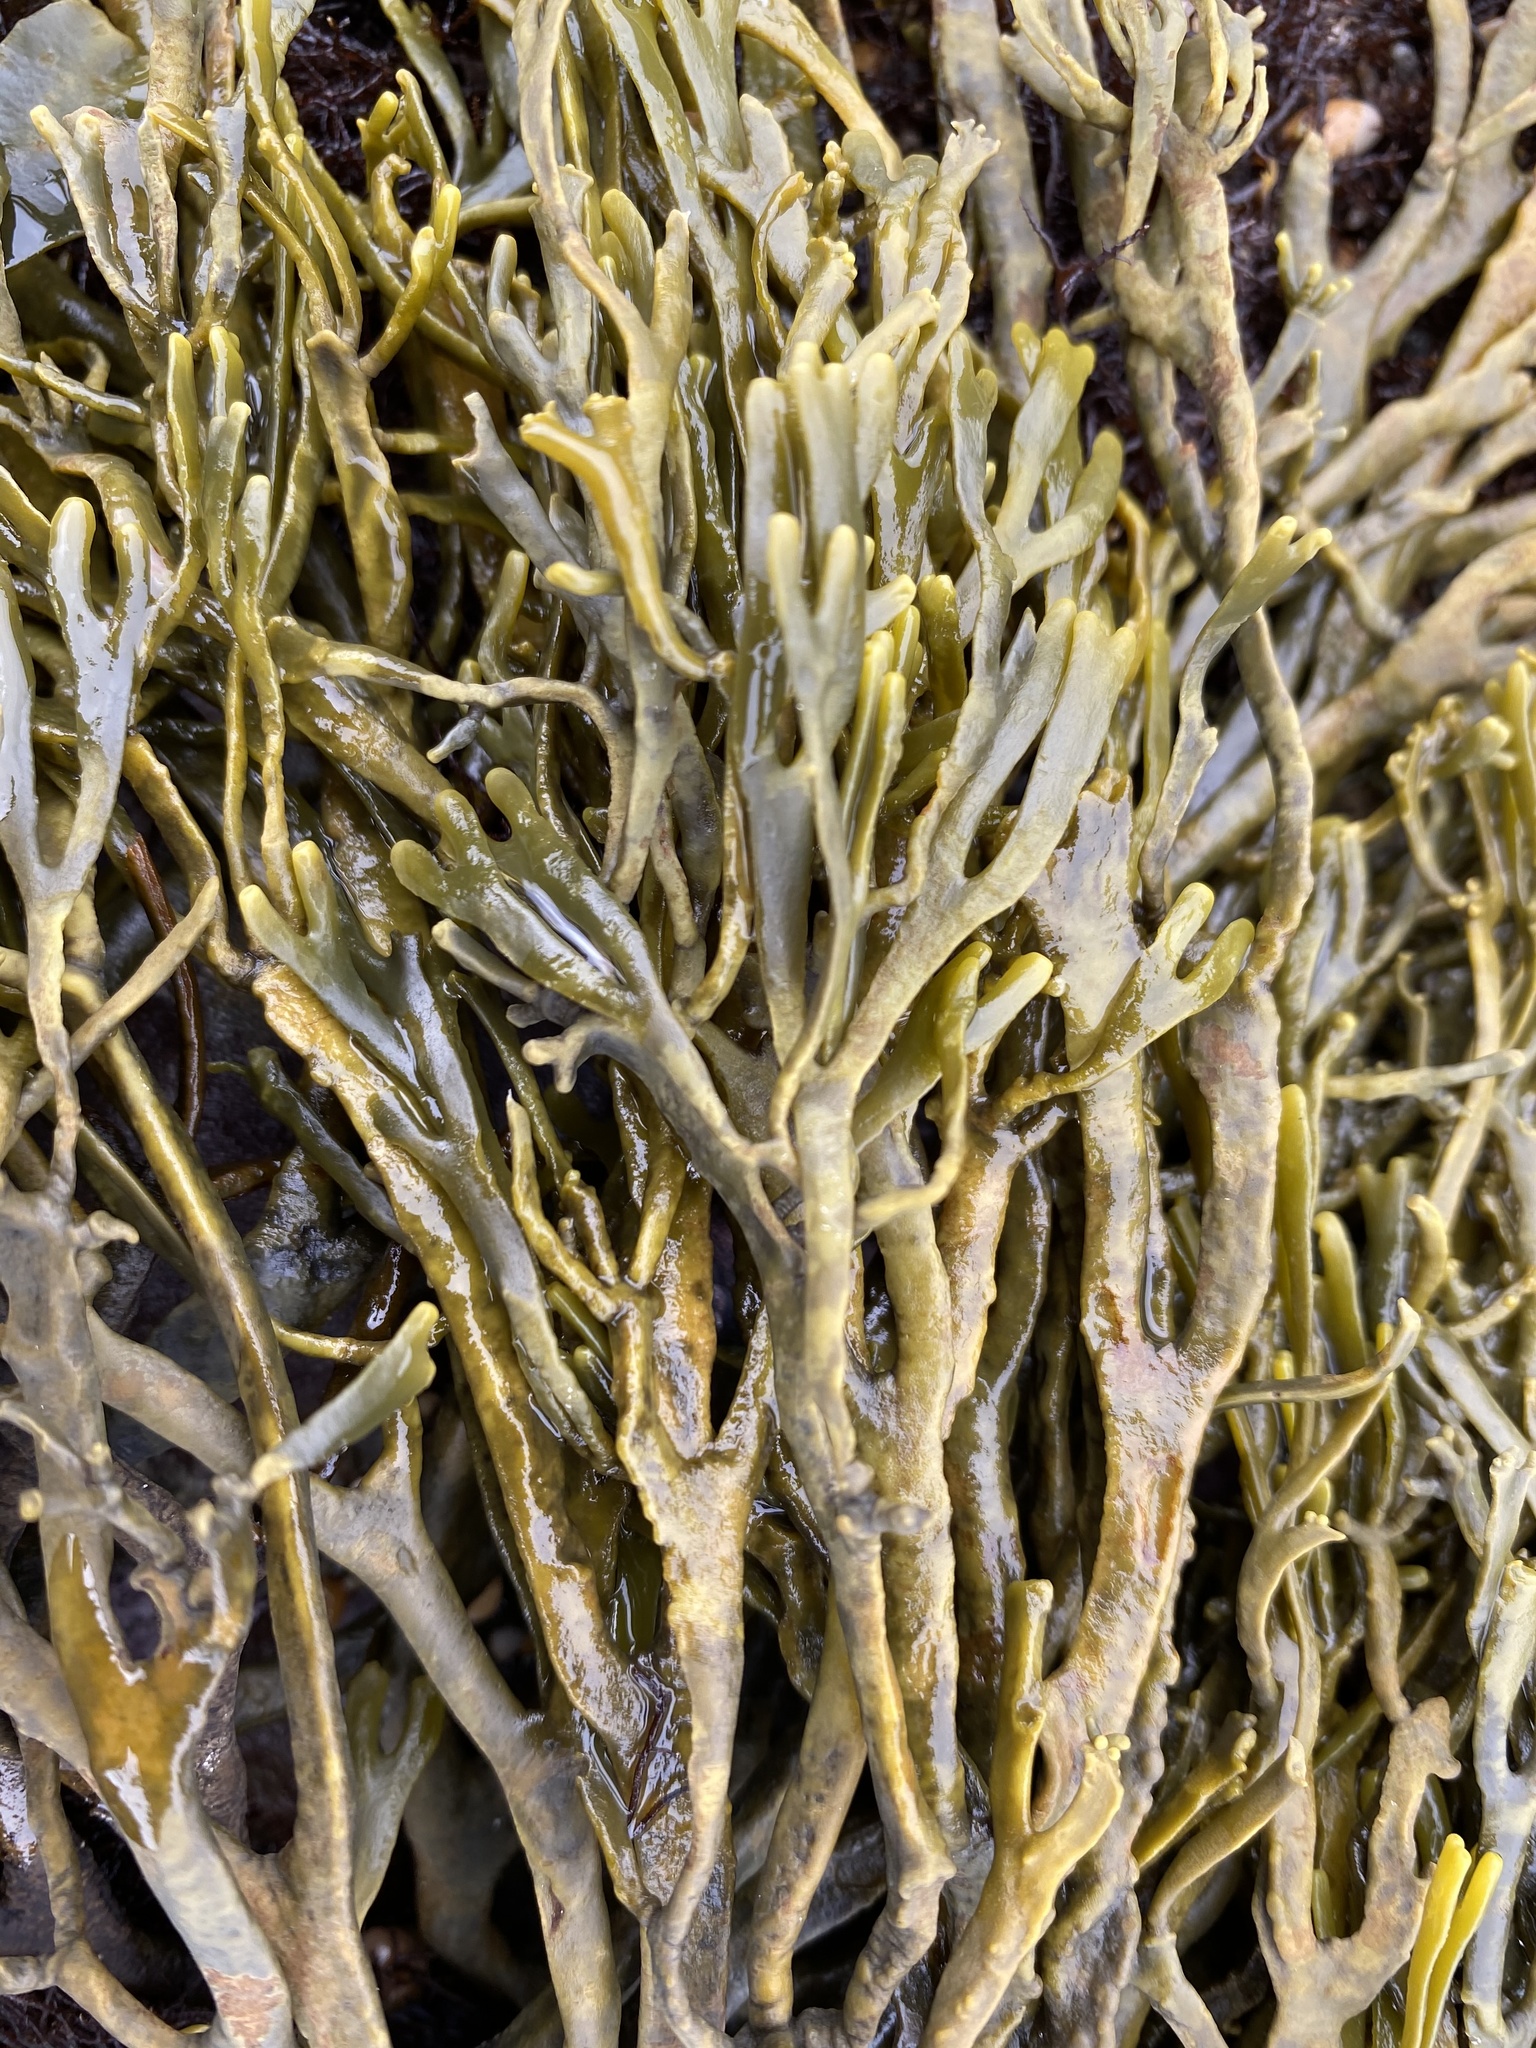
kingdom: Chromista
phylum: Ochrophyta
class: Phaeophyceae
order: Fucales
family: Fucaceae
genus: Silvetia
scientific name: Silvetia
